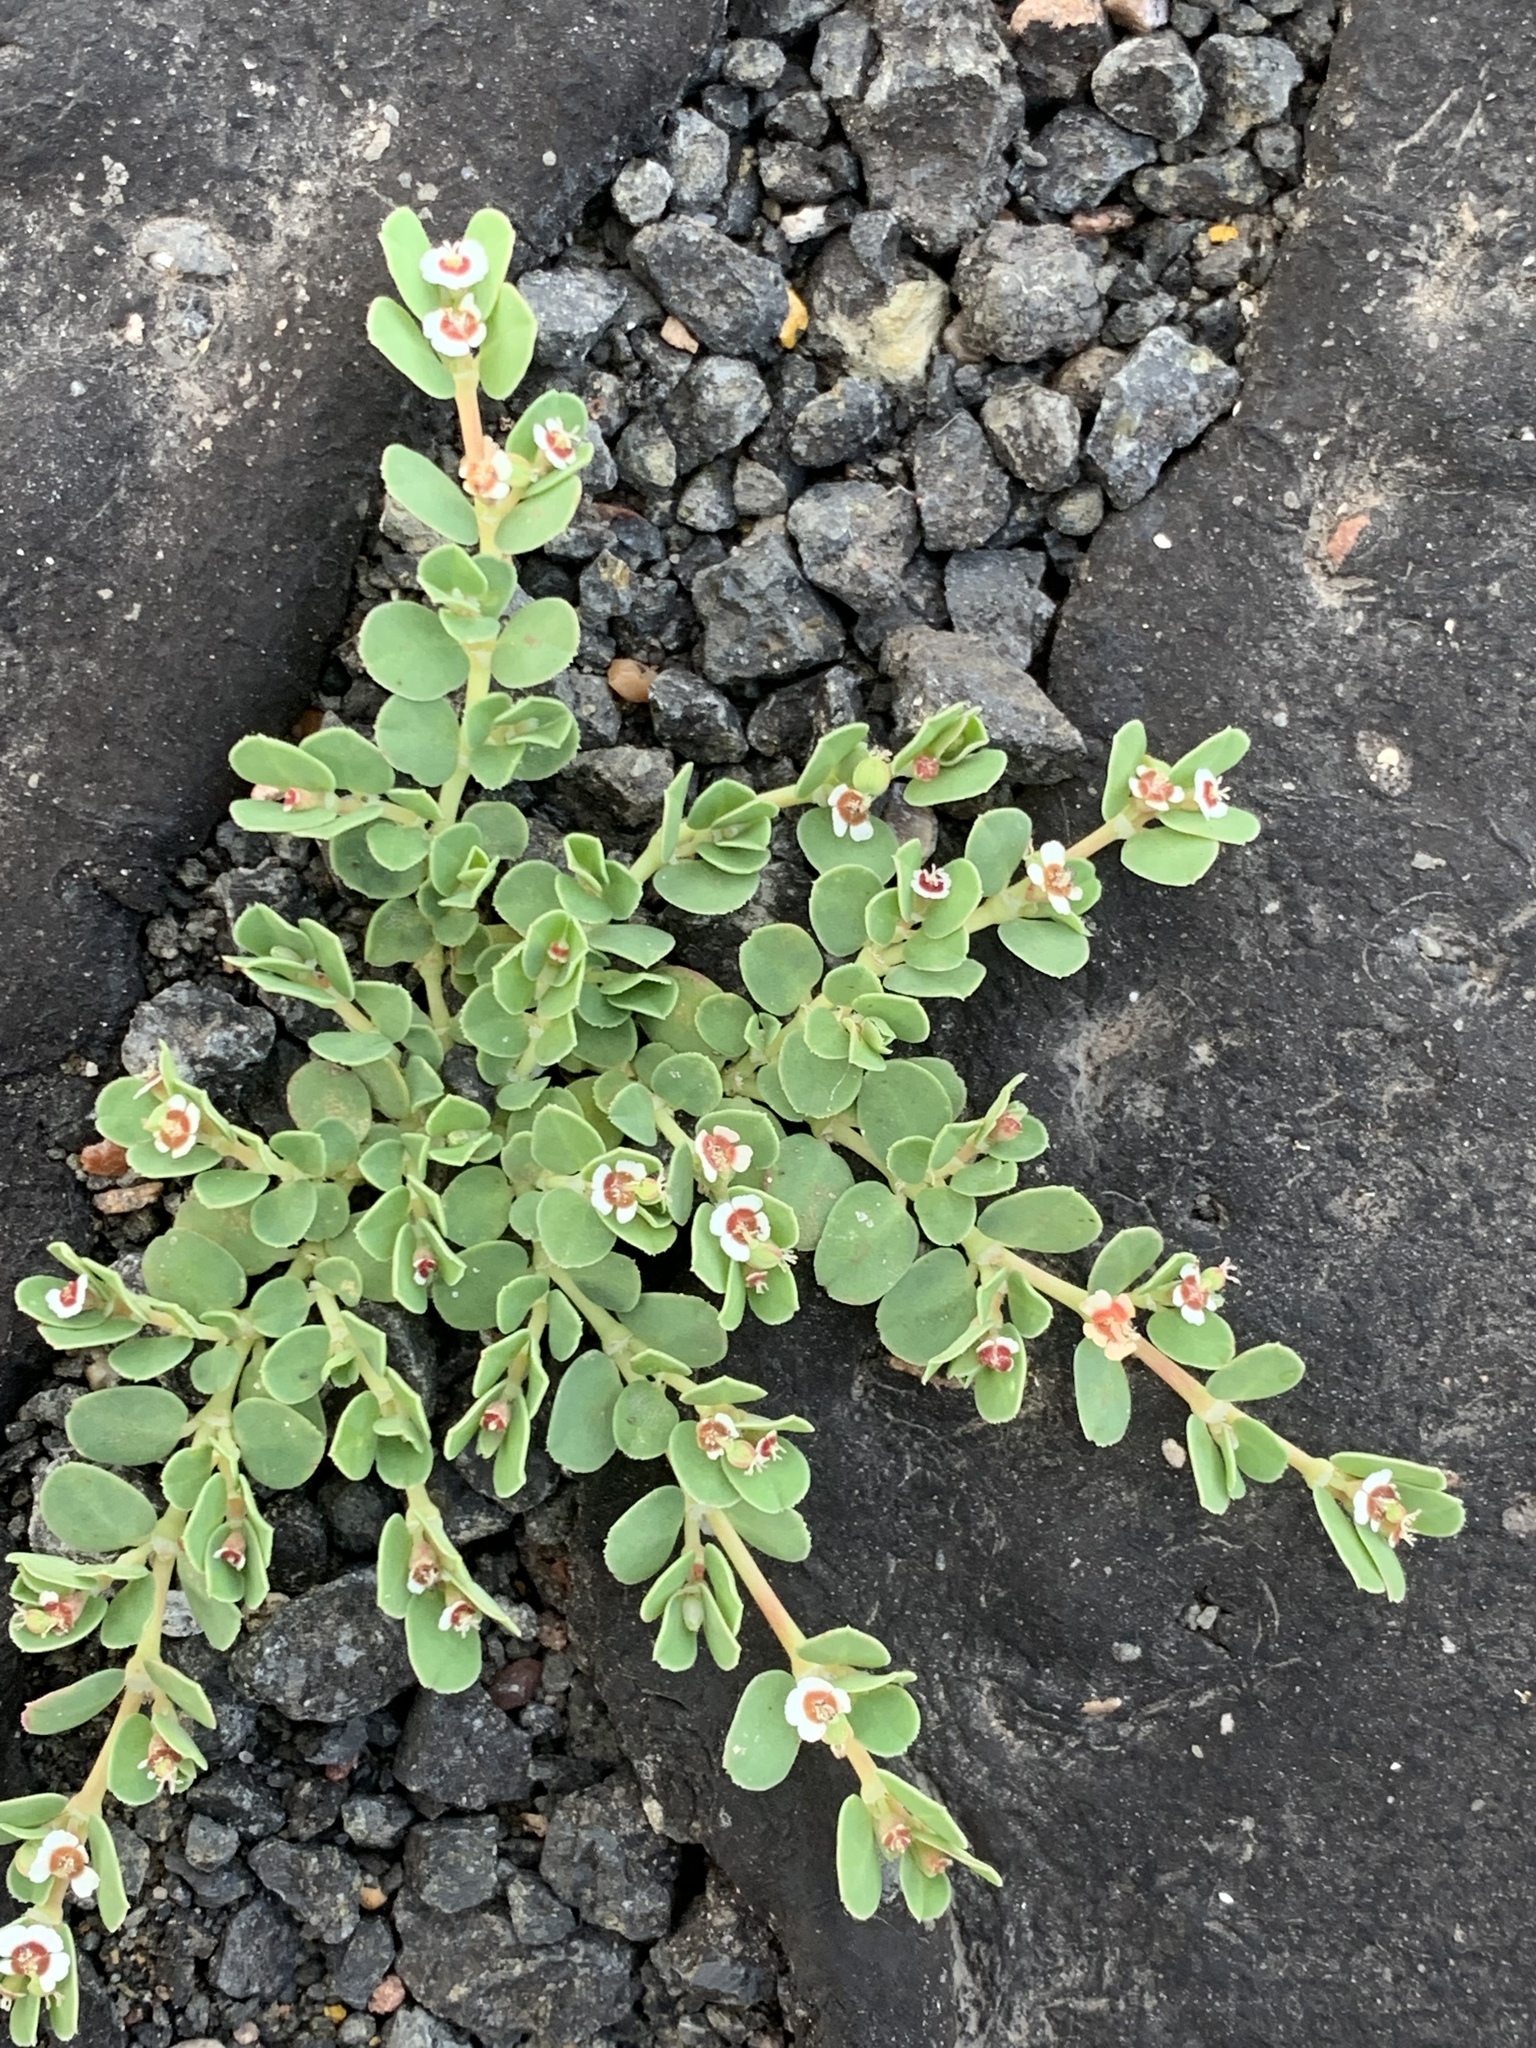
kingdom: Plantae
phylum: Tracheophyta
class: Magnoliopsida
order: Malpighiales
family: Euphorbiaceae
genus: Euphorbia
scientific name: Euphorbia albomarginata
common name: Whitemargin sandmat
